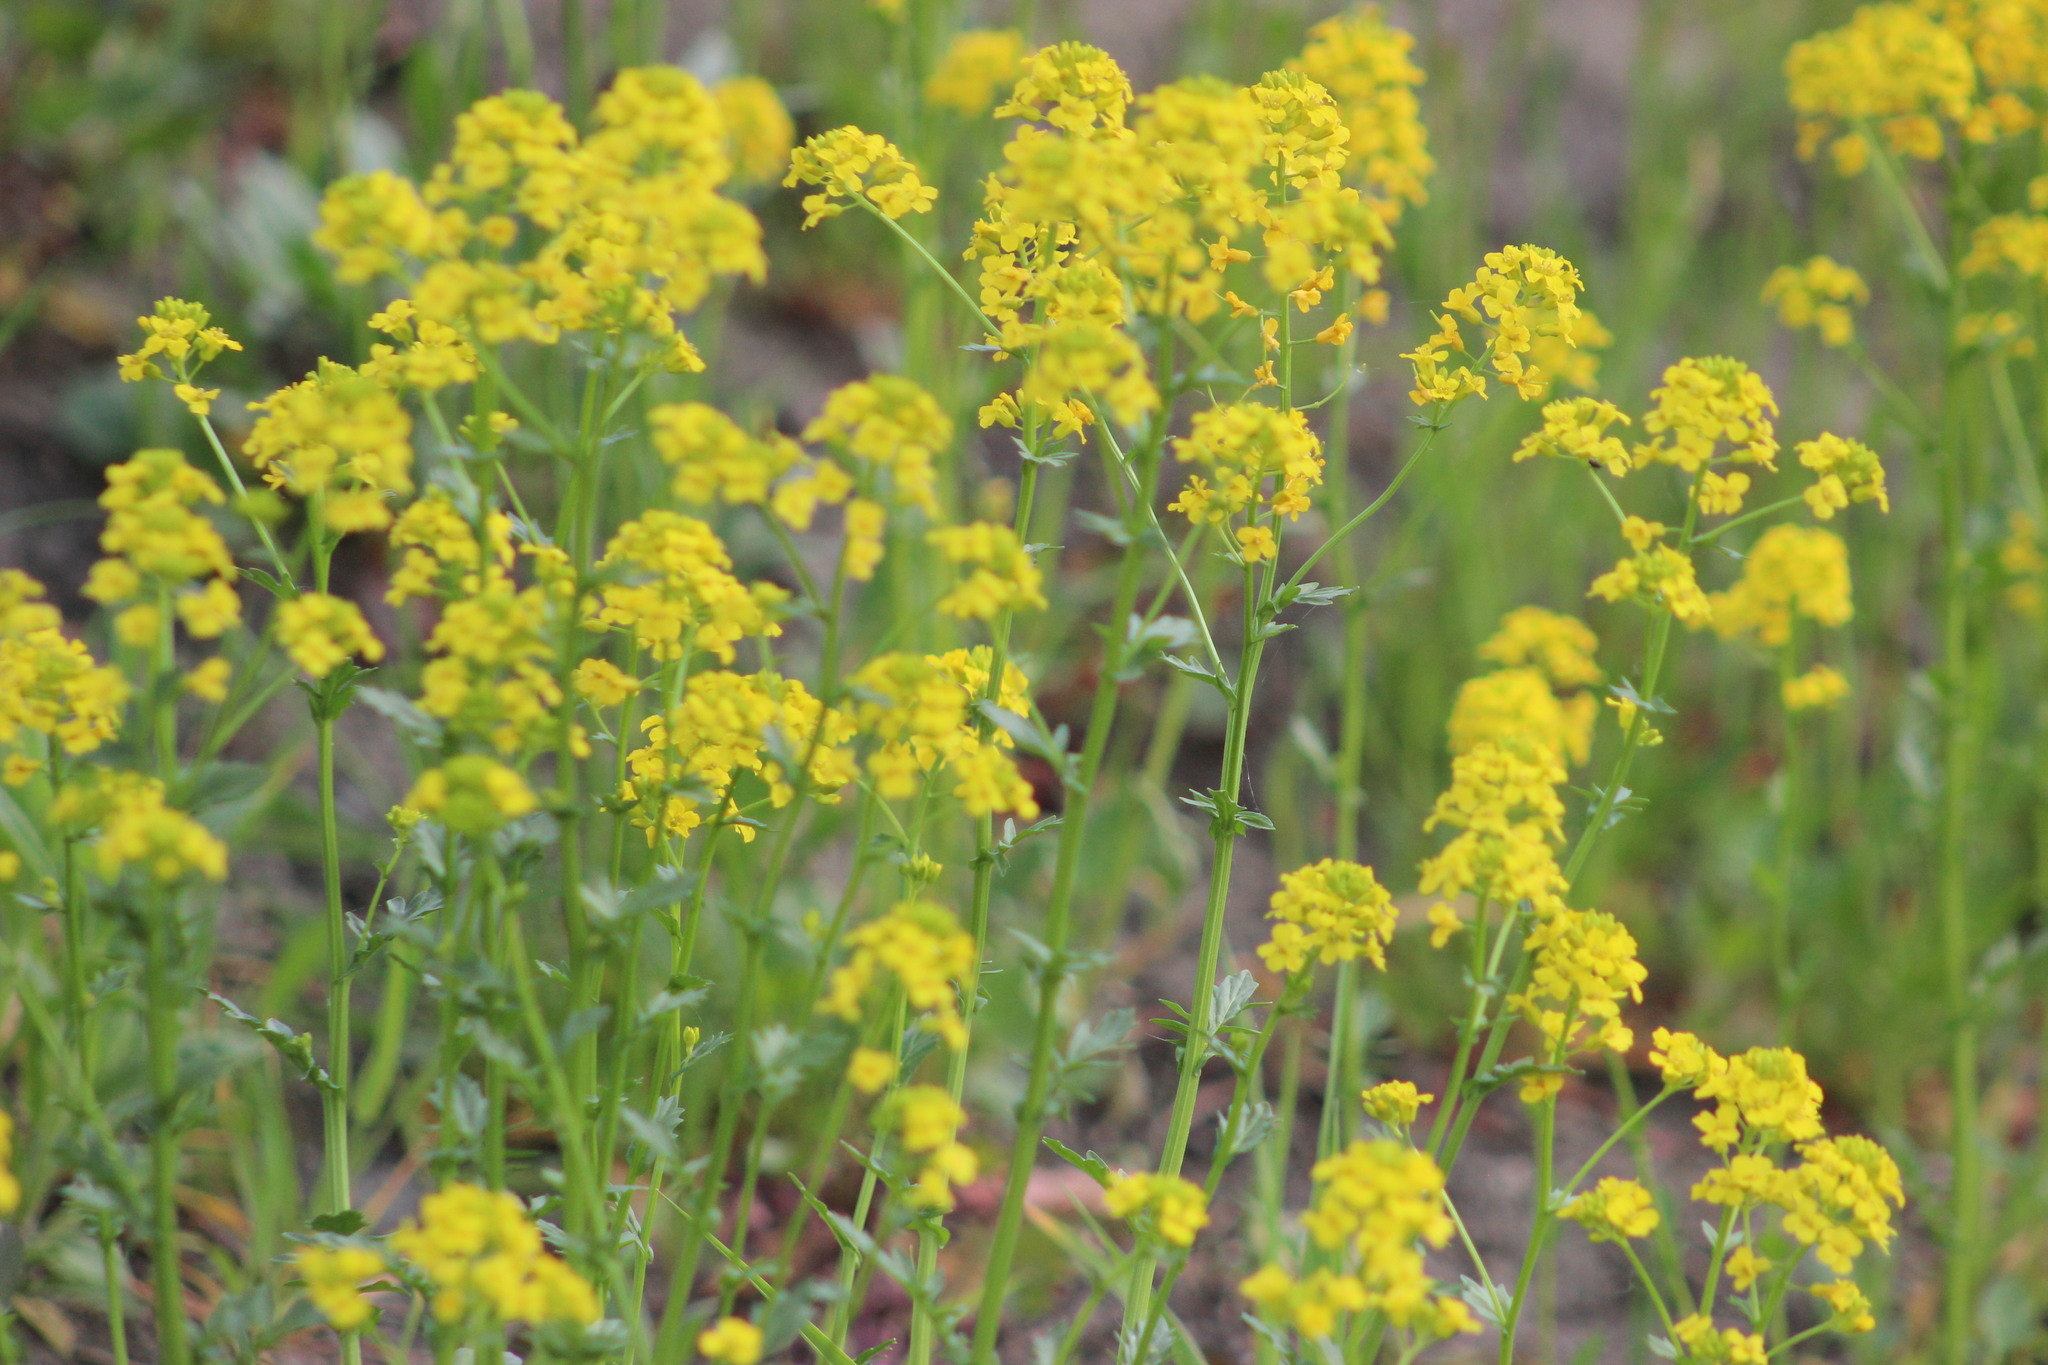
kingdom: Plantae
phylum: Tracheophyta
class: Magnoliopsida
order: Brassicales
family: Brassicaceae
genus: Barbarea
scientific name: Barbarea vulgaris
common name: Cressy-greens
